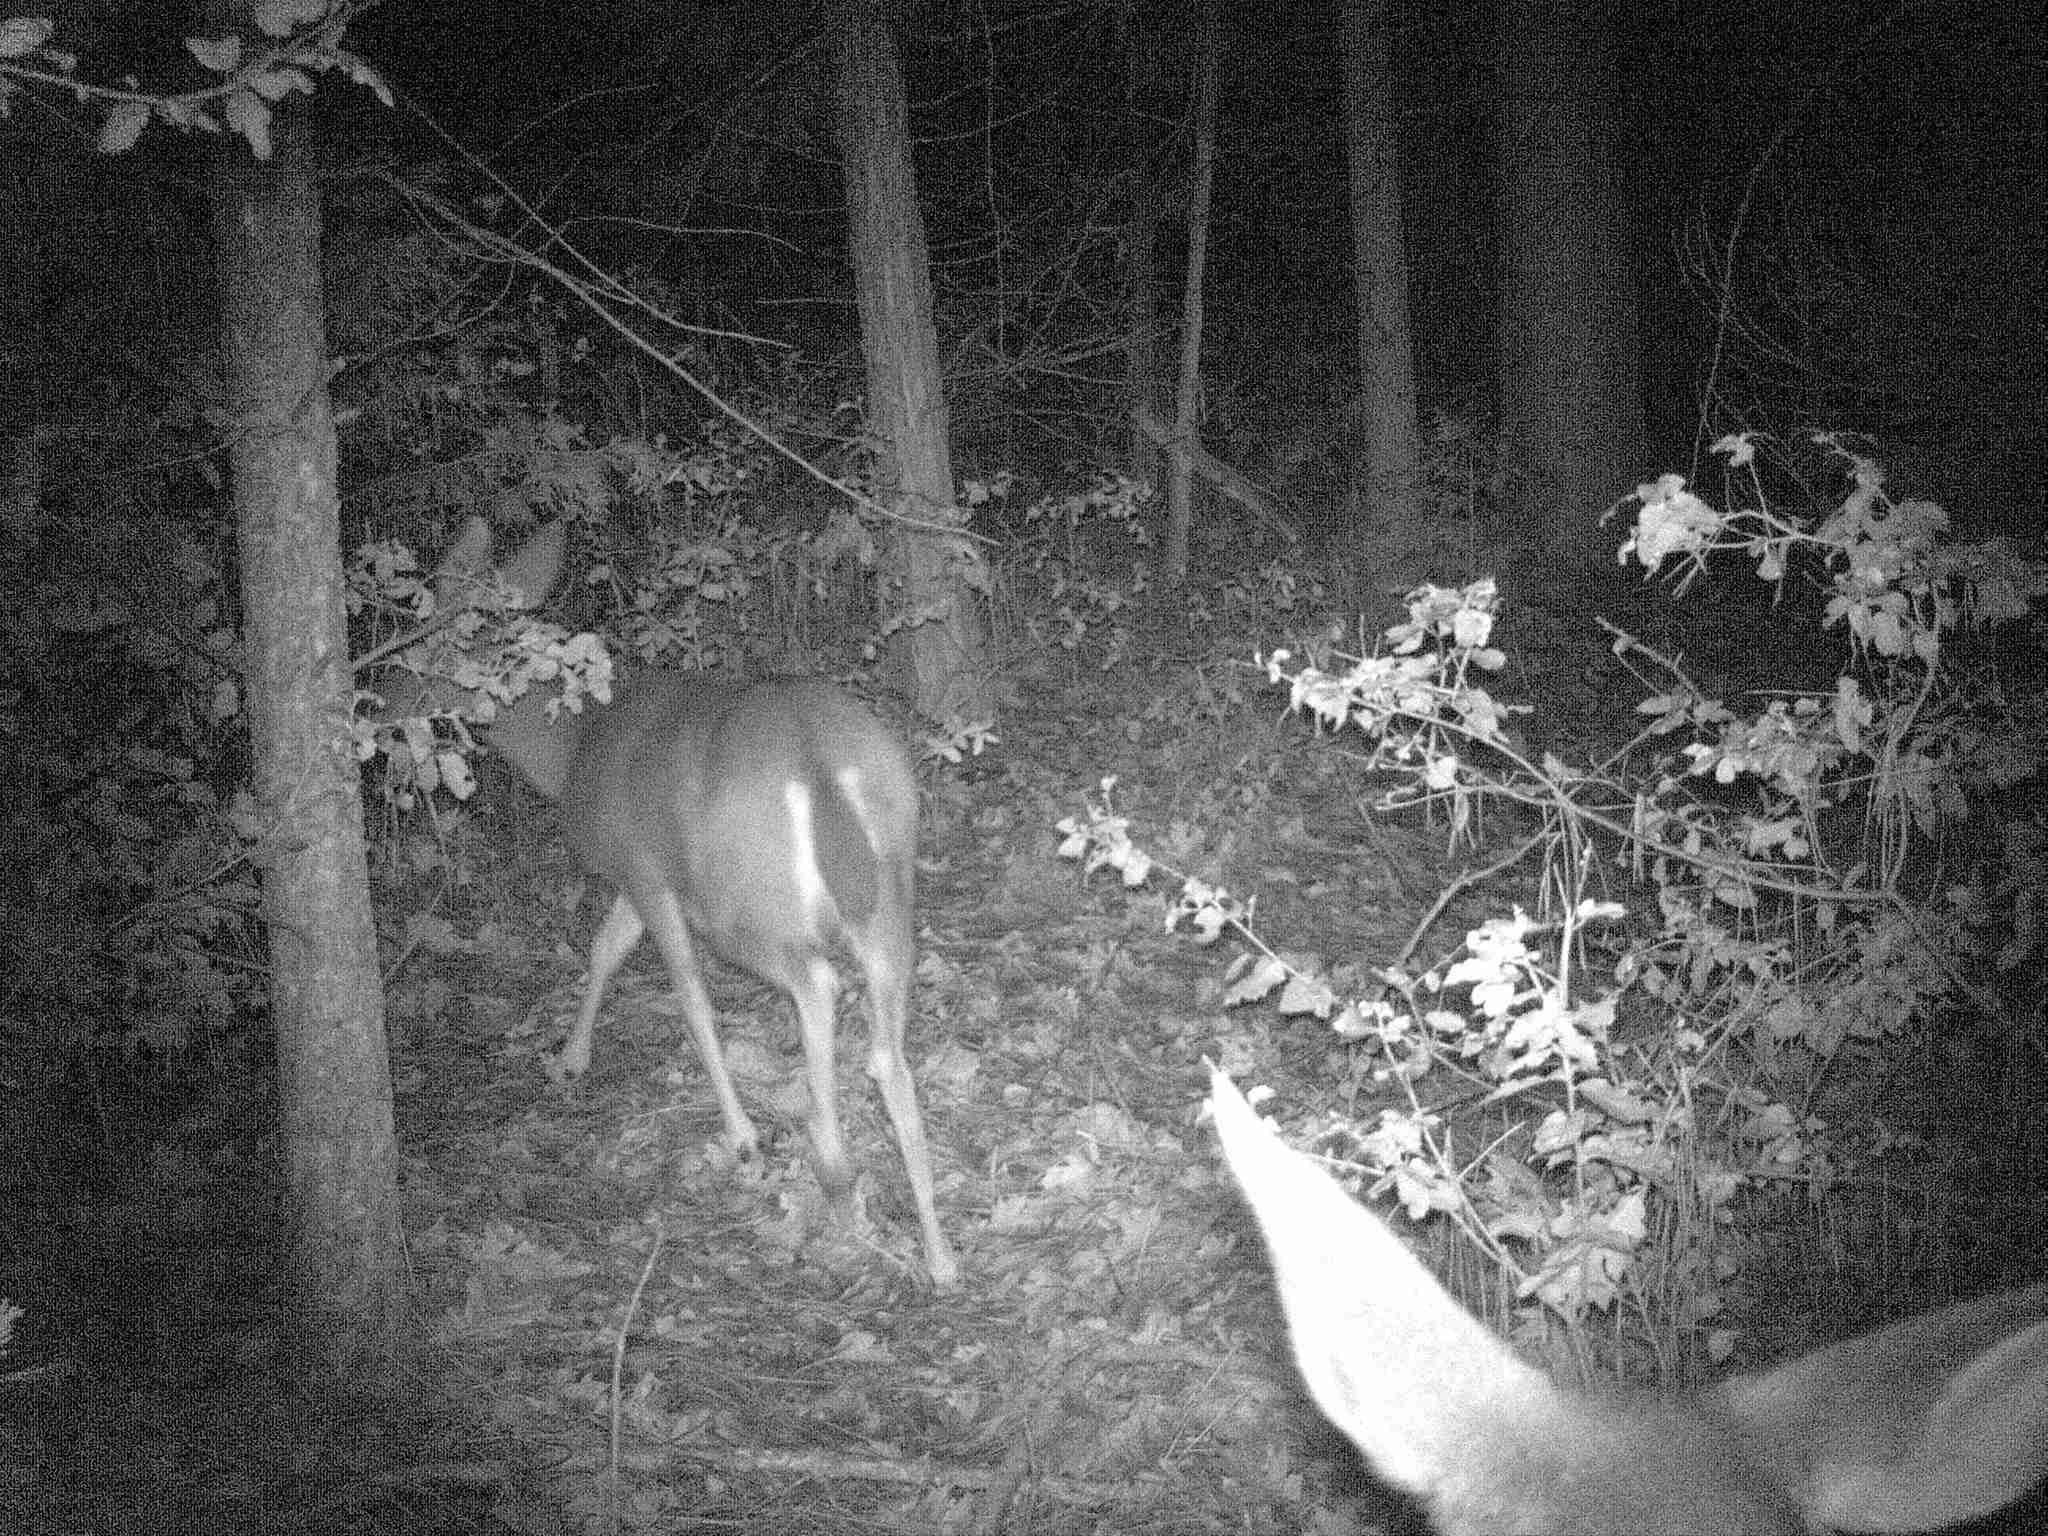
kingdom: Animalia
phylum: Chordata
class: Mammalia
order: Artiodactyla
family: Cervidae
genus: Odocoileus
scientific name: Odocoileus hemionus
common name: Mule deer
